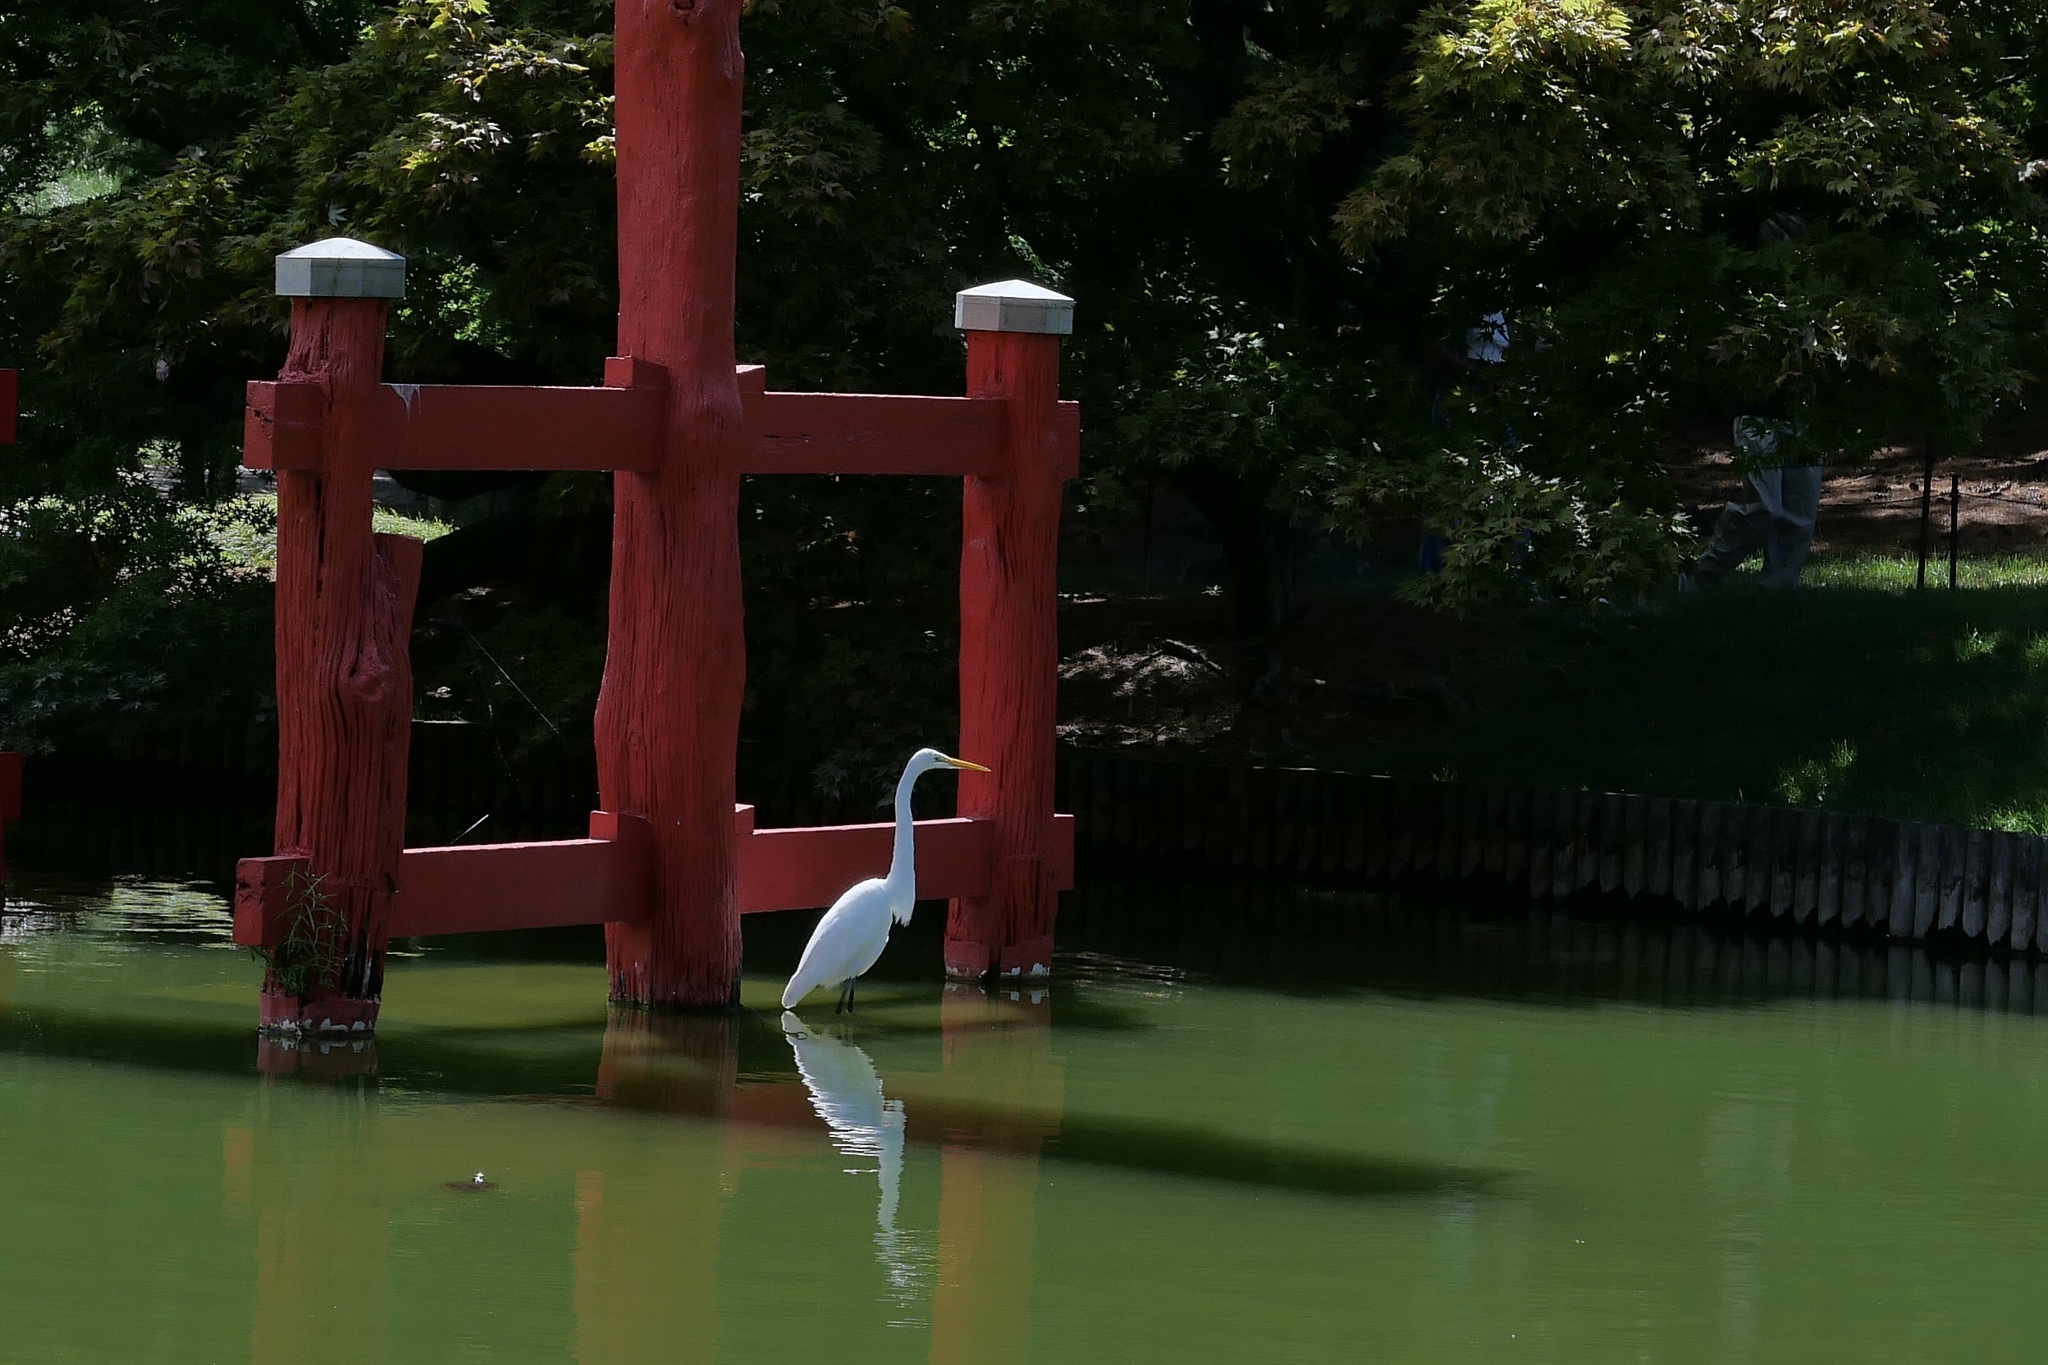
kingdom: Animalia
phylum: Chordata
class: Aves
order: Pelecaniformes
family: Ardeidae
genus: Ardea
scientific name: Ardea alba
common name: Great egret
